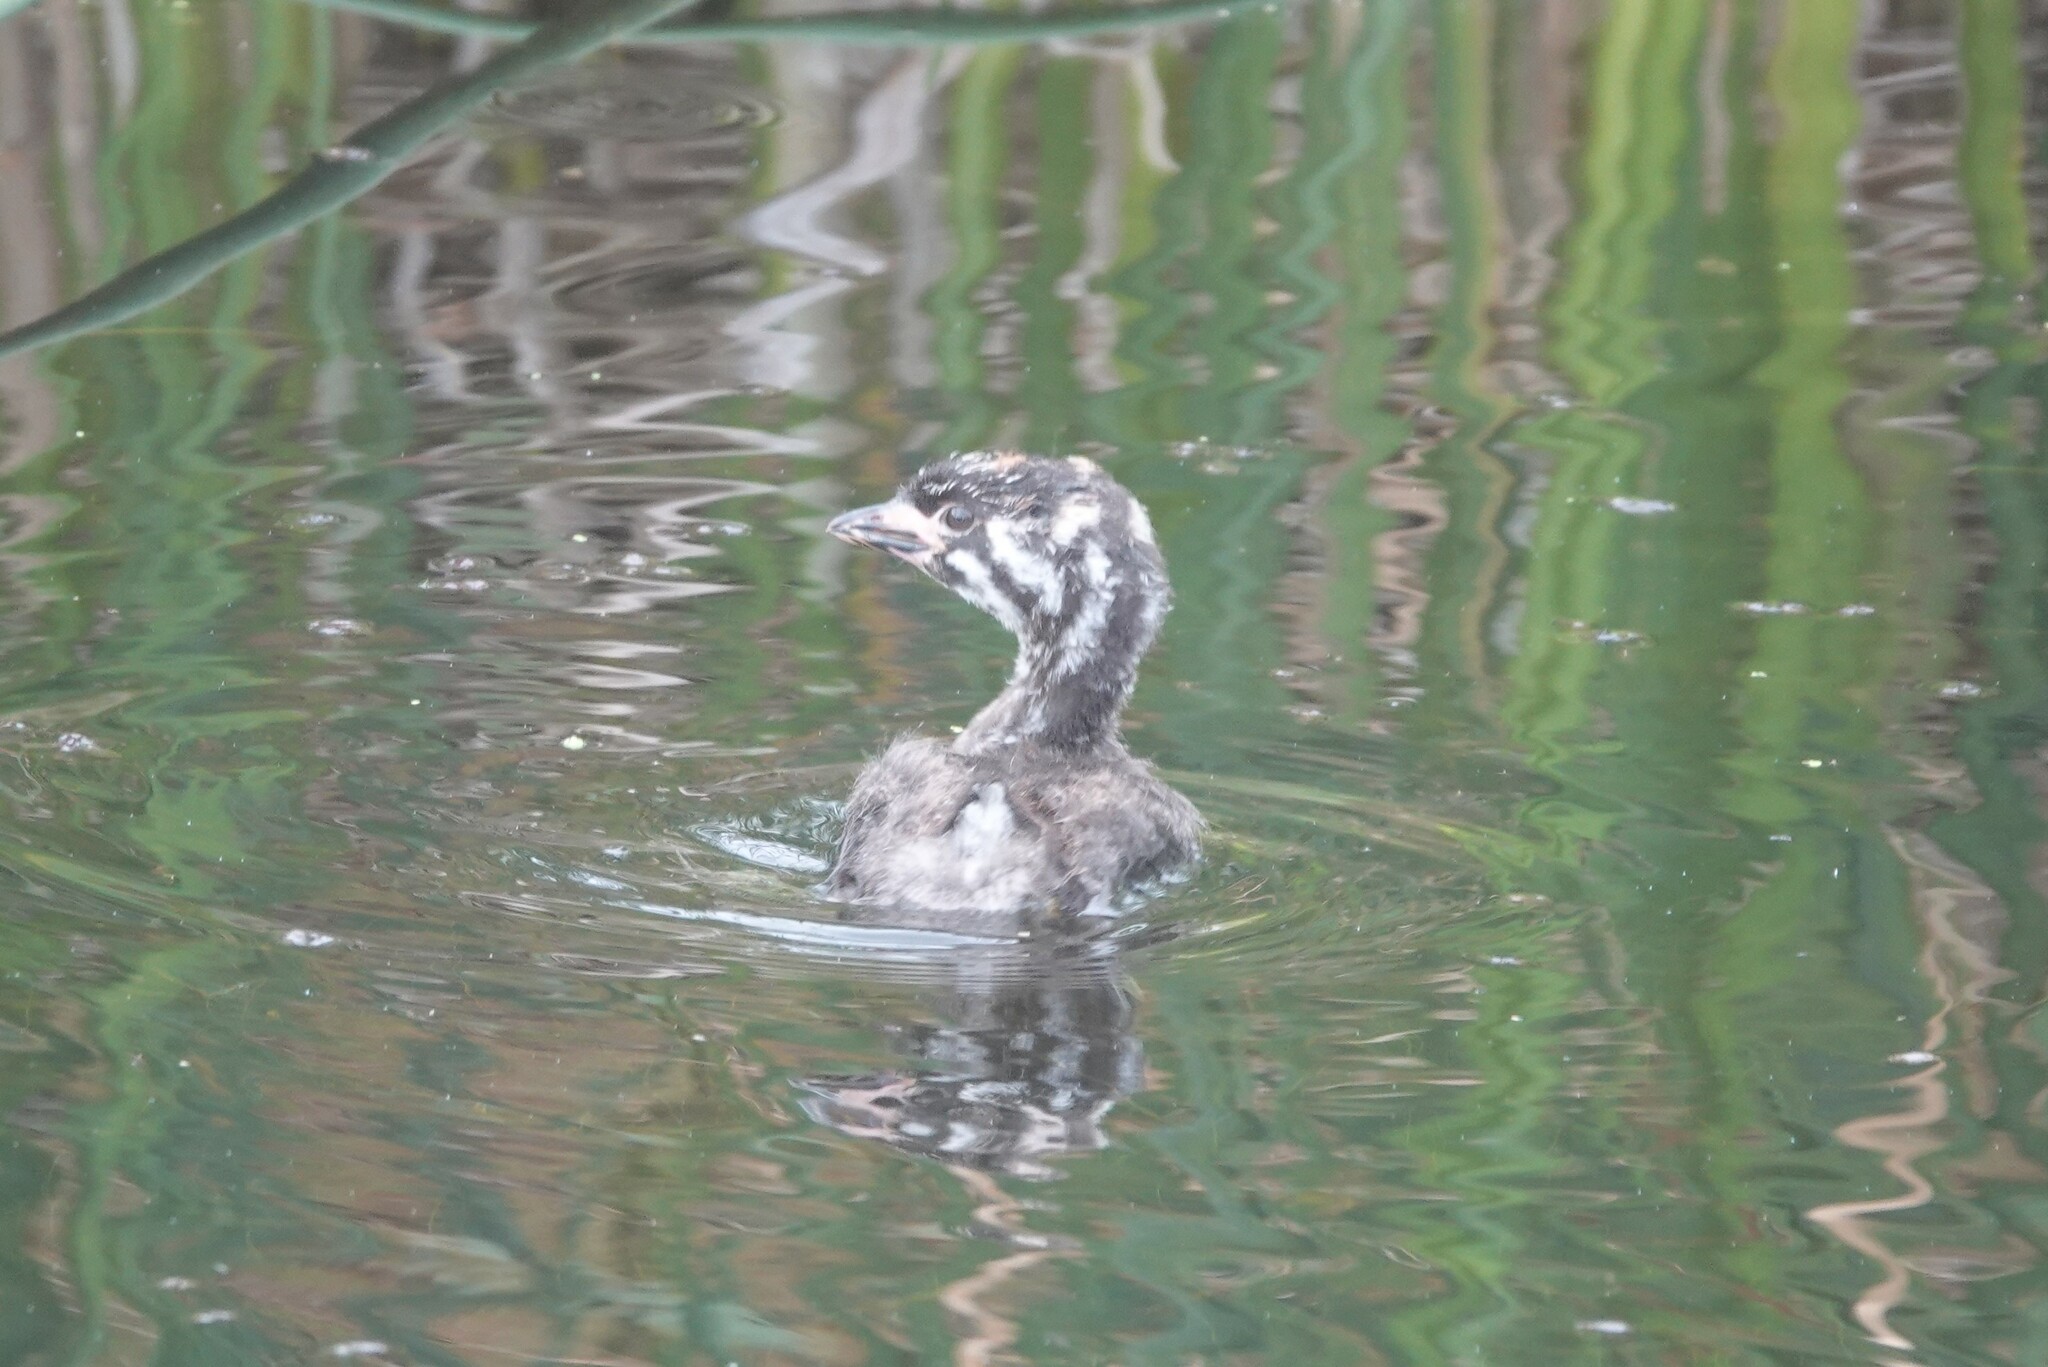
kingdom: Animalia
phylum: Chordata
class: Aves
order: Podicipediformes
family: Podicipedidae
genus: Podilymbus
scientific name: Podilymbus podiceps
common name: Pied-billed grebe
